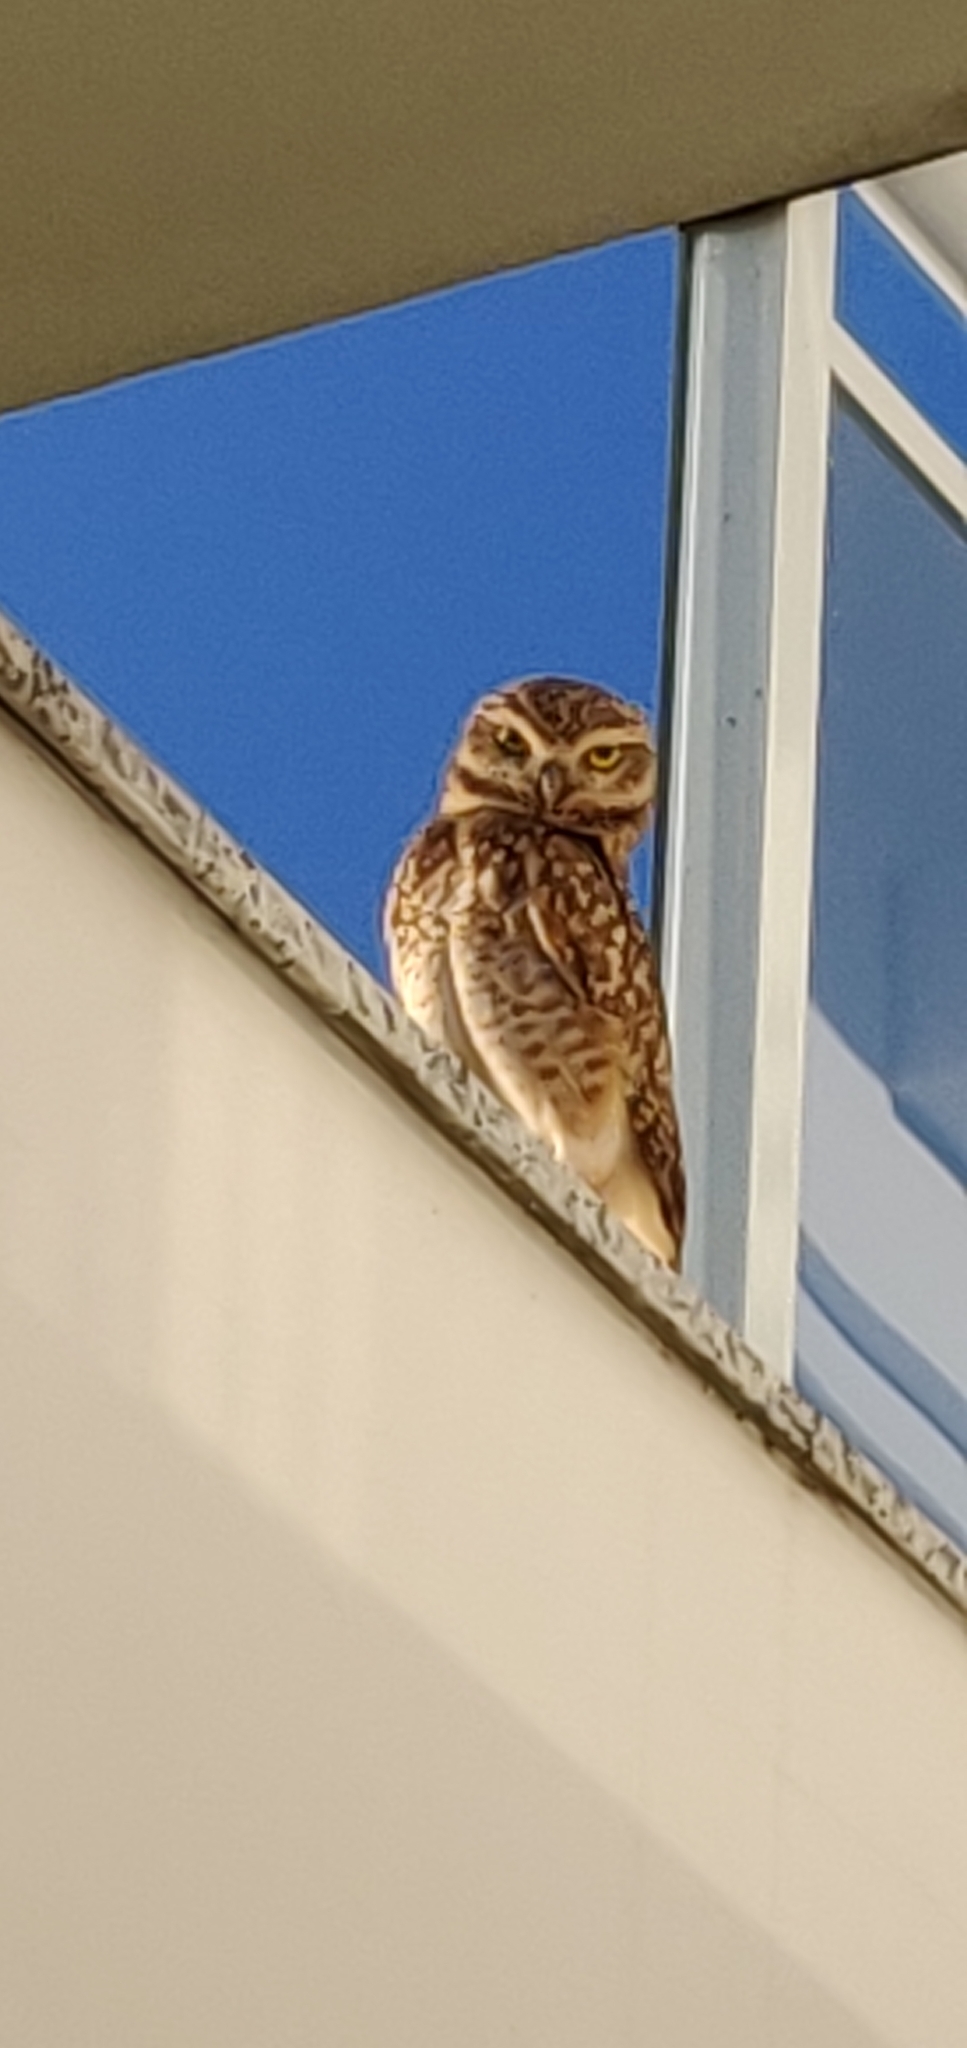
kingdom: Animalia
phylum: Chordata
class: Aves
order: Strigiformes
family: Strigidae
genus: Athene
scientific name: Athene cunicularia
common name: Burrowing owl
